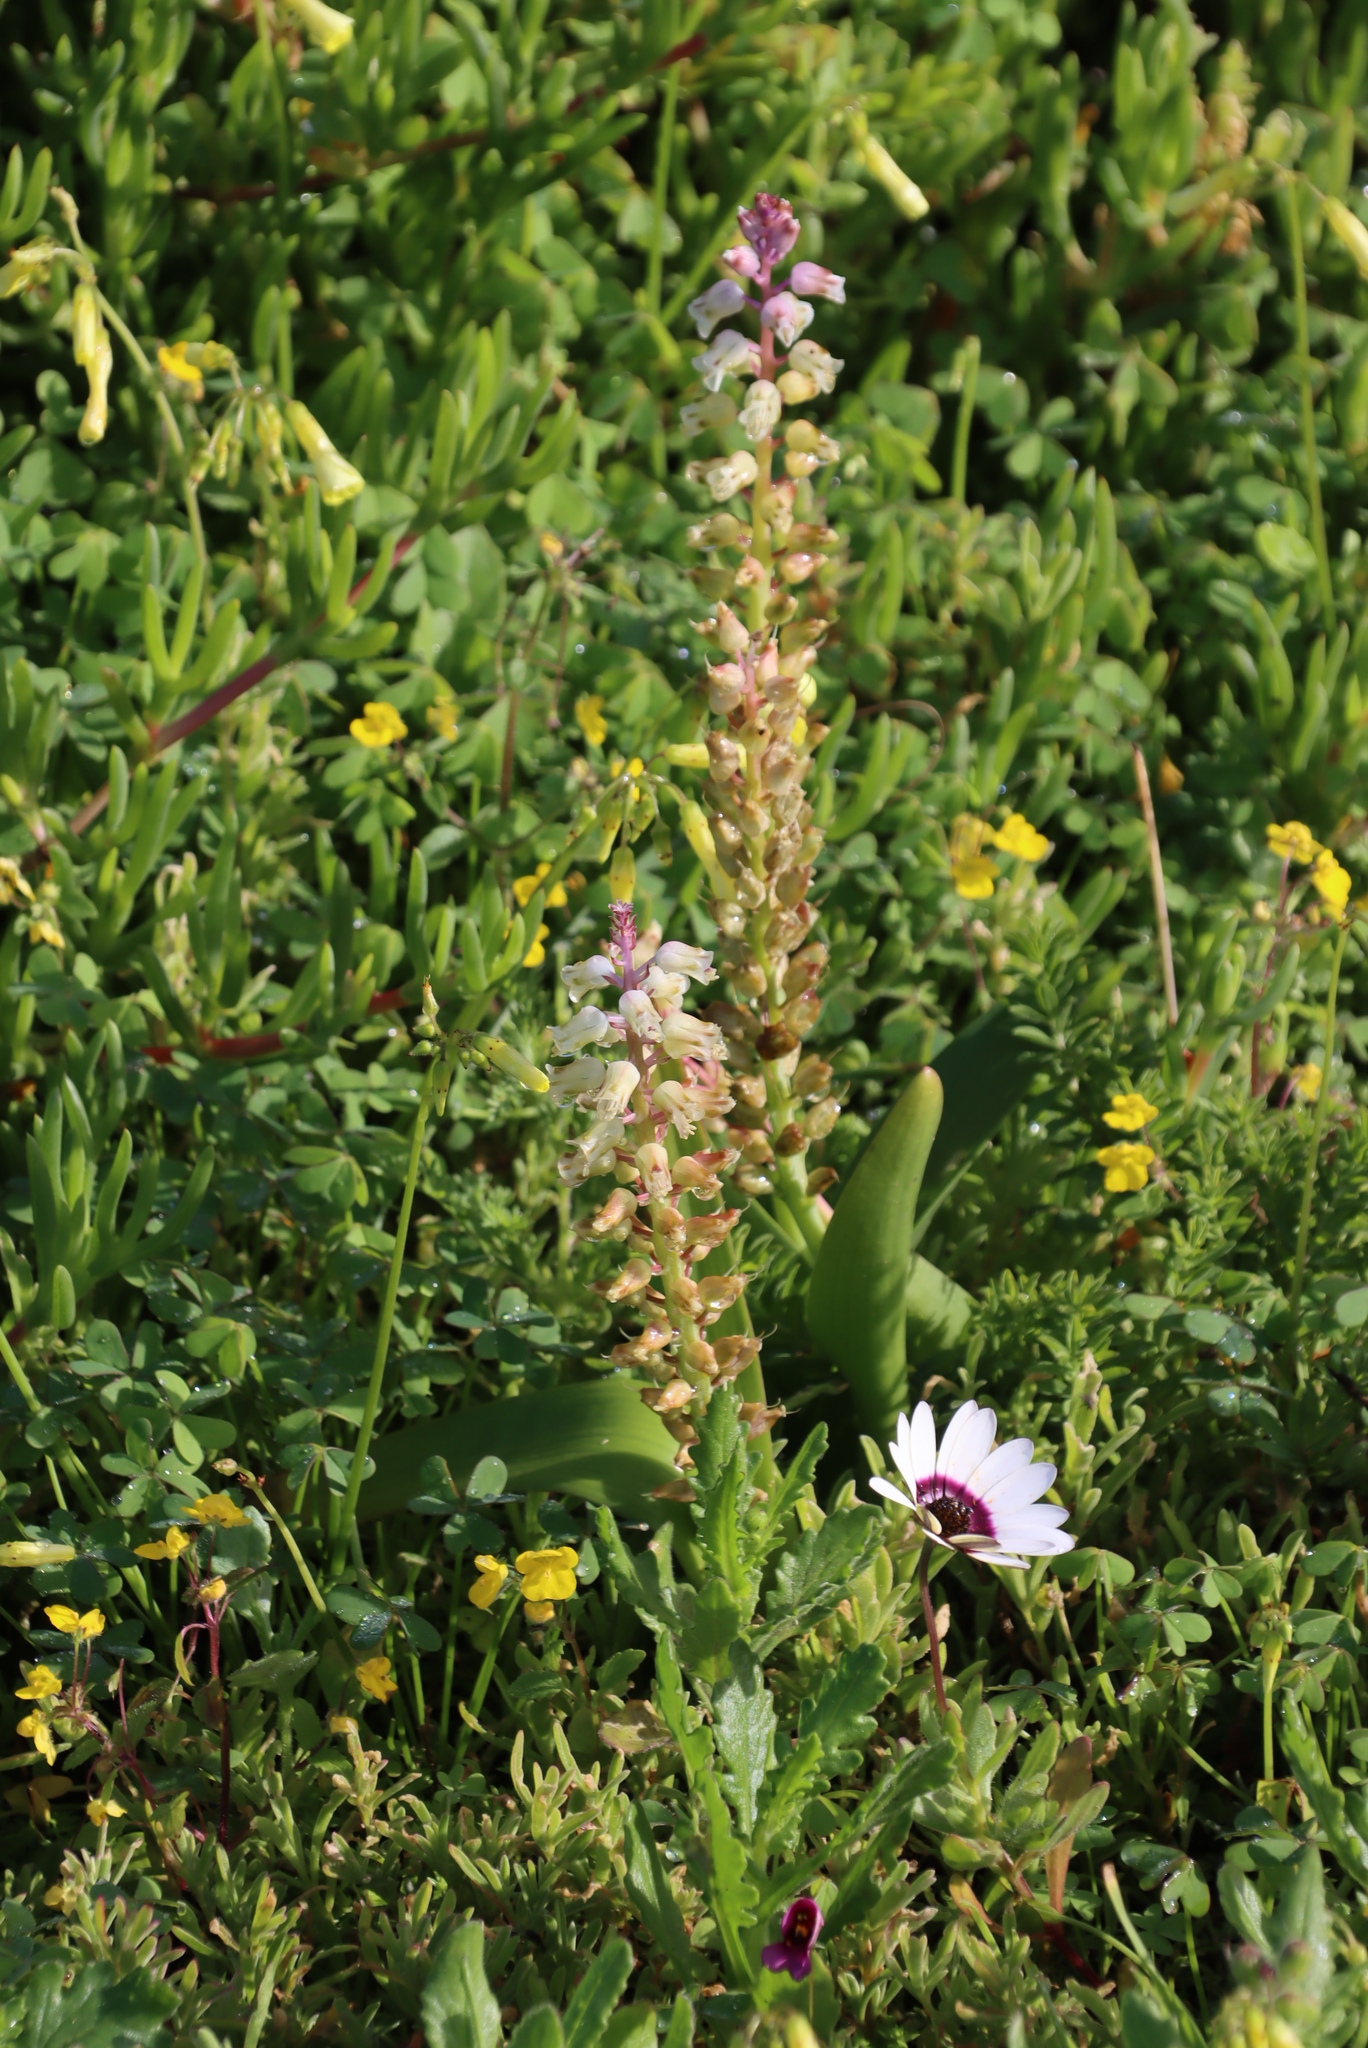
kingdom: Plantae
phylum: Tracheophyta
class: Liliopsida
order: Asparagales
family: Asparagaceae
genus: Lachenalia
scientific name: Lachenalia pallida
